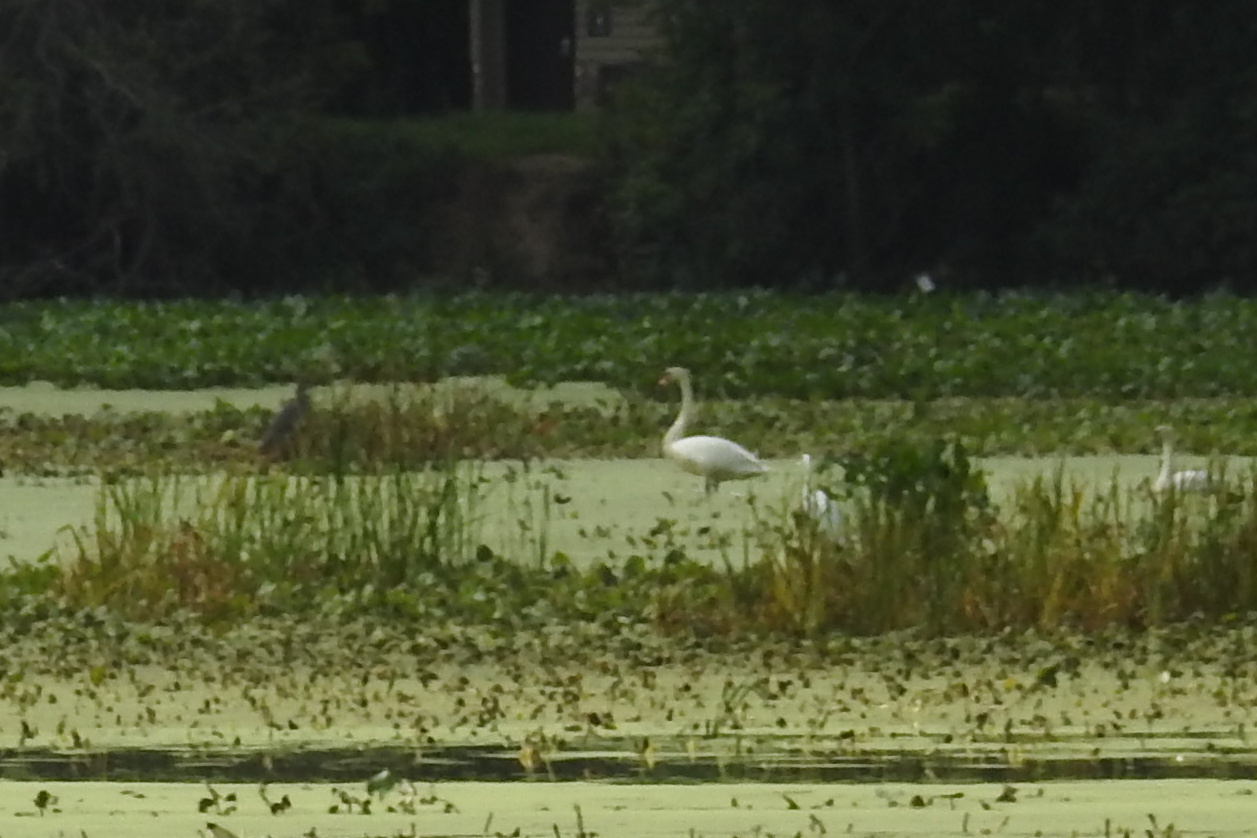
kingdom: Animalia
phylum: Chordata
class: Aves
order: Anseriformes
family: Anatidae
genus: Cygnus
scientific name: Cygnus olor
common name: Mute swan
